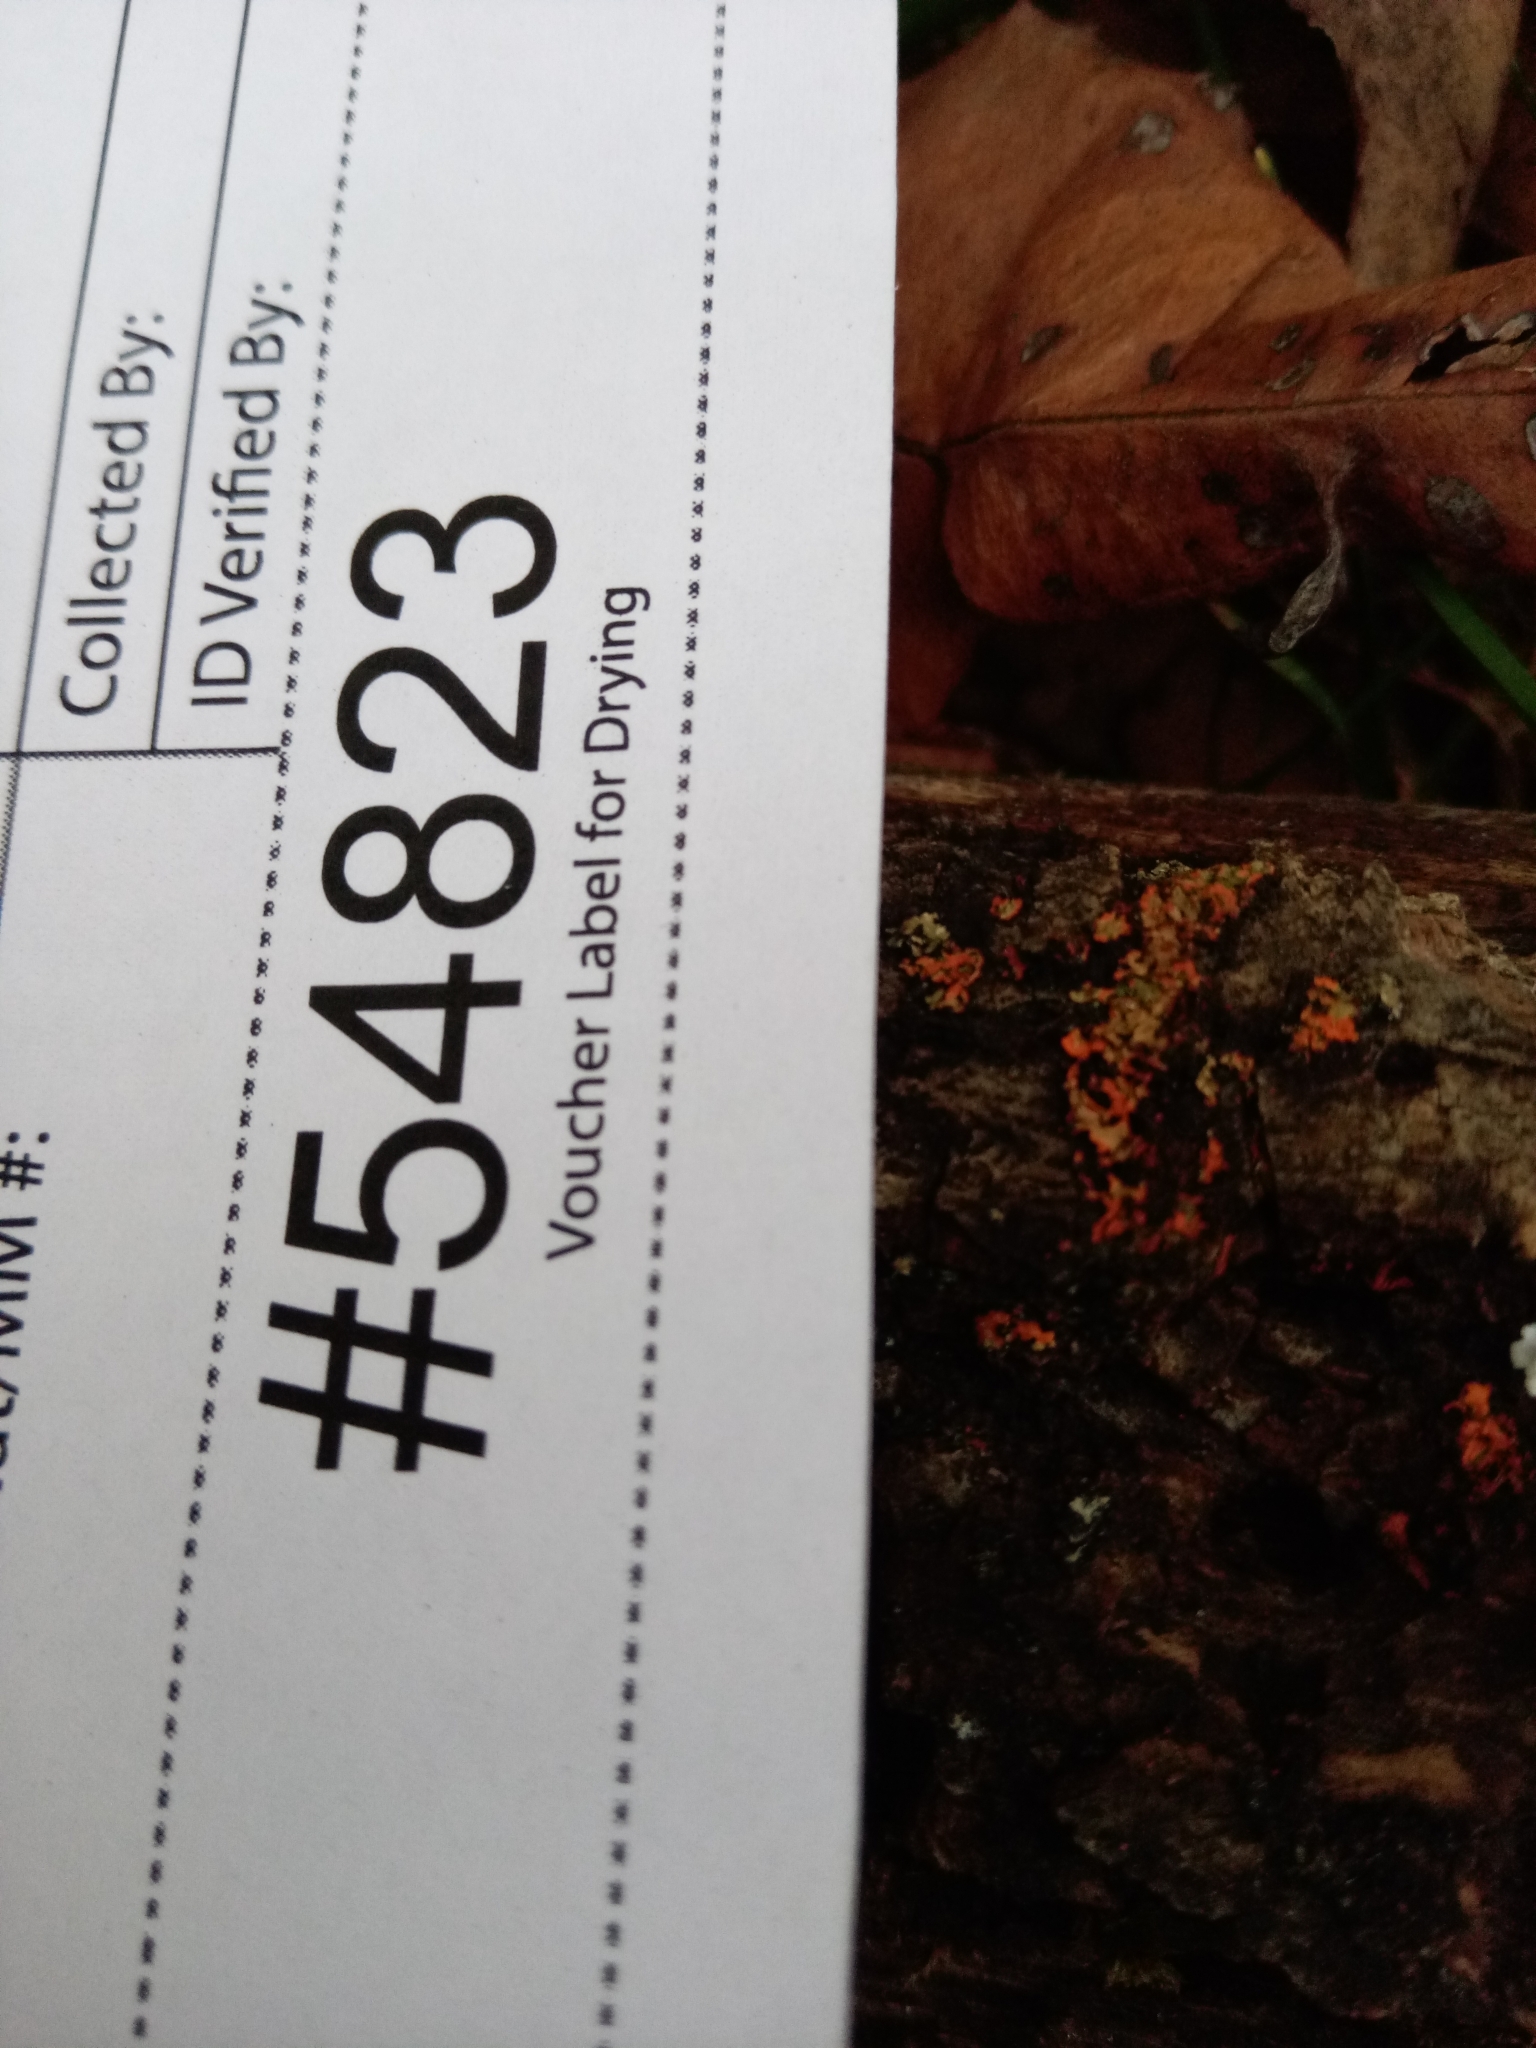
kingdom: Fungi
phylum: Ascomycota
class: Lecanoromycetes
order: Caliciales
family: Physciaceae
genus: Phaeophyscia
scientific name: Phaeophyscia rubropulchra
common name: Orange-cored shadow lichen
